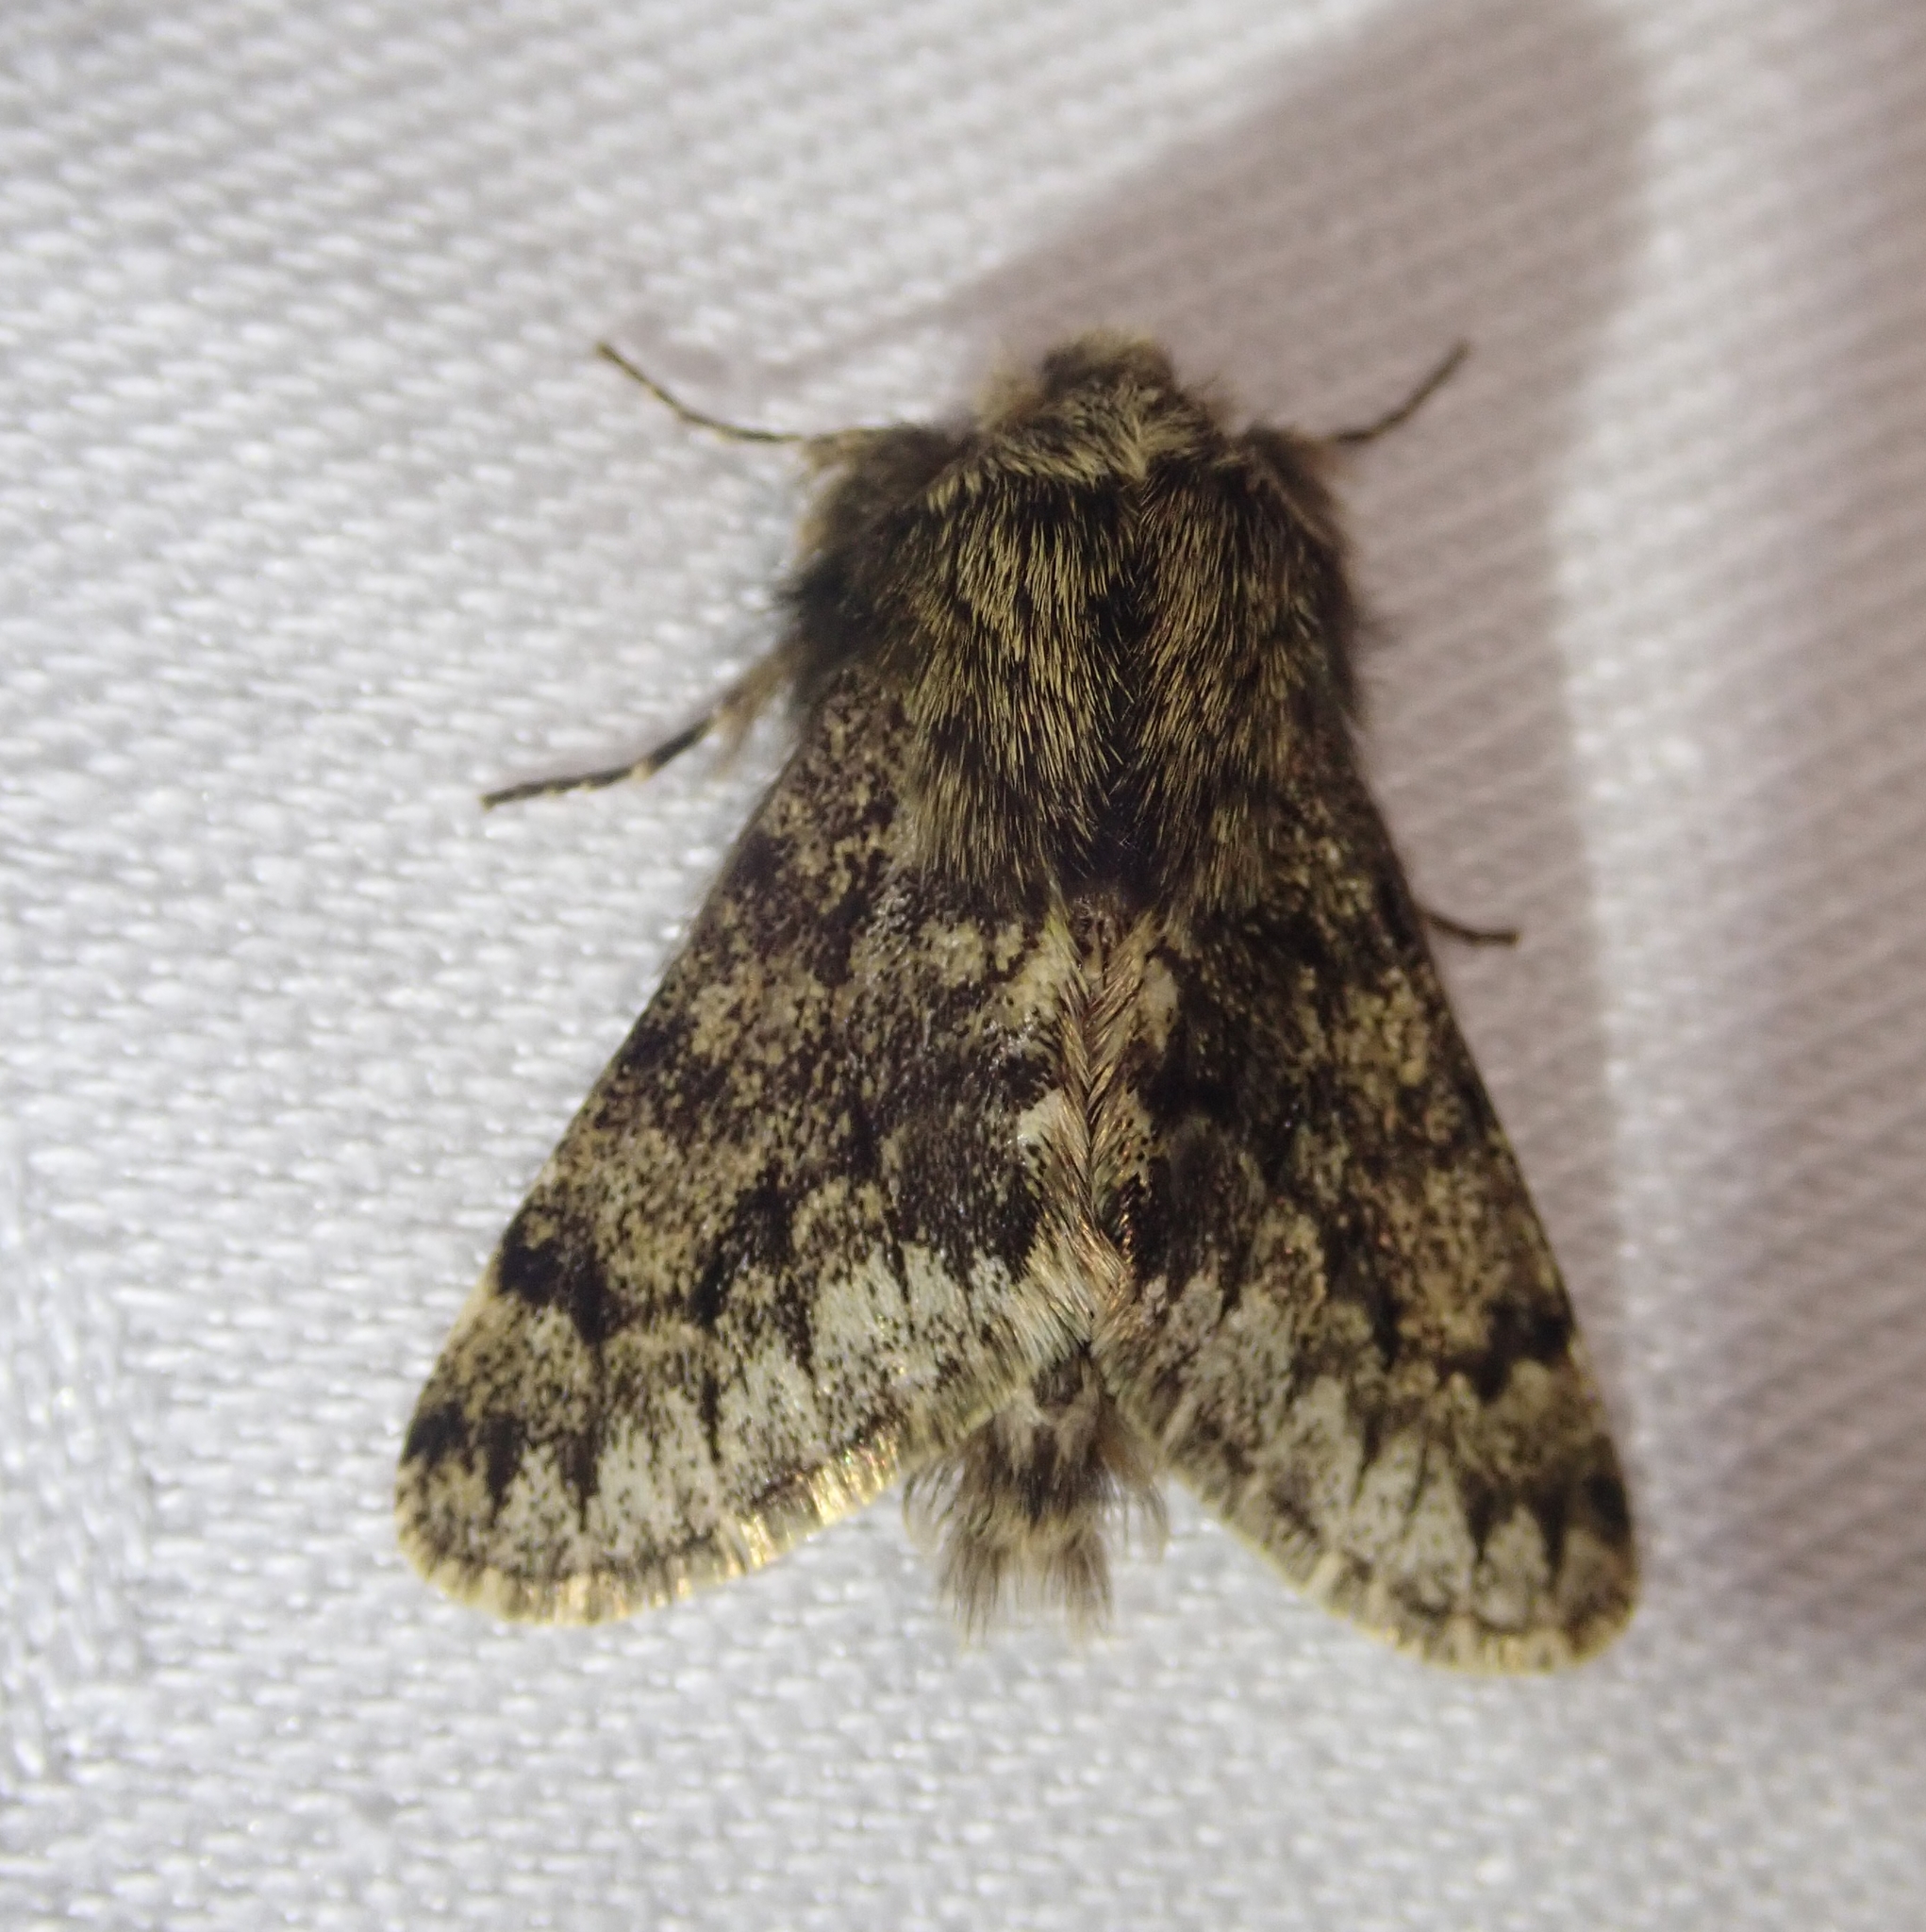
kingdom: Animalia
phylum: Arthropoda
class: Insecta
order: Lepidoptera
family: Geometridae
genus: Apocheima
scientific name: Apocheima hispidaria
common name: Small brindled beauty
